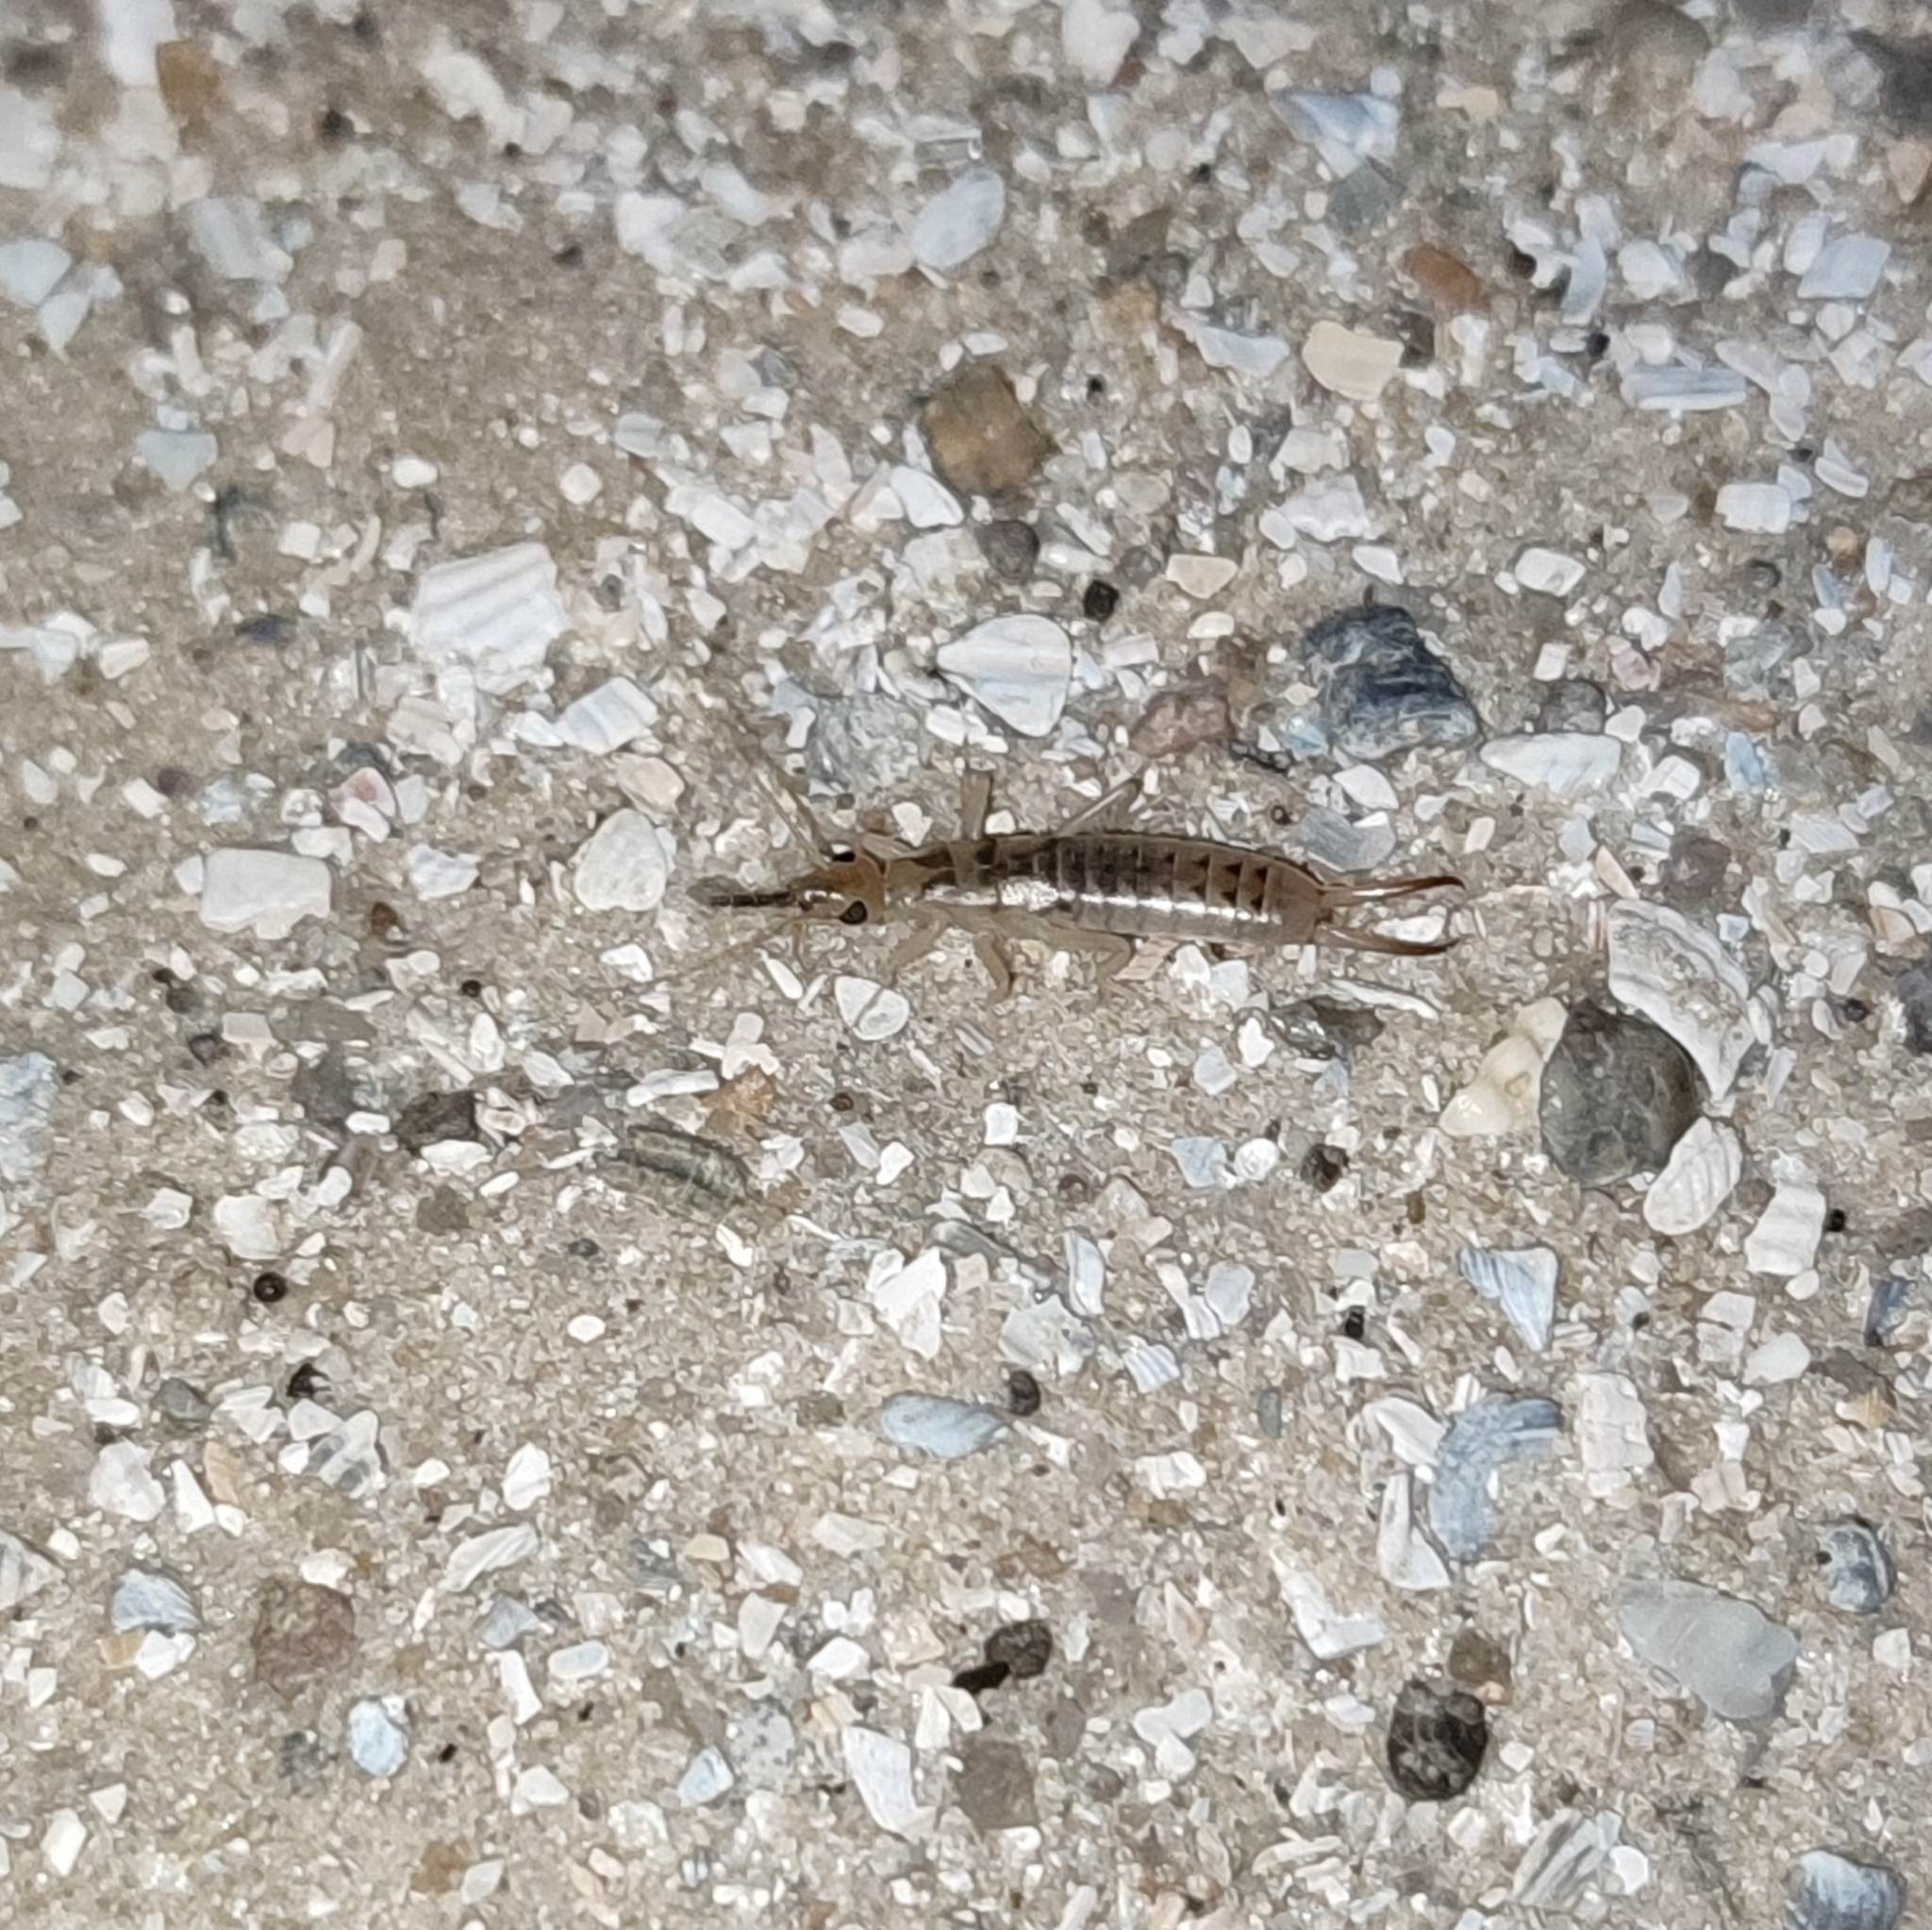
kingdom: Animalia
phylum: Arthropoda
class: Insecta
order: Dermaptera
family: Labiduridae
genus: Labidura
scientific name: Labidura riparia
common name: Striped earwig
